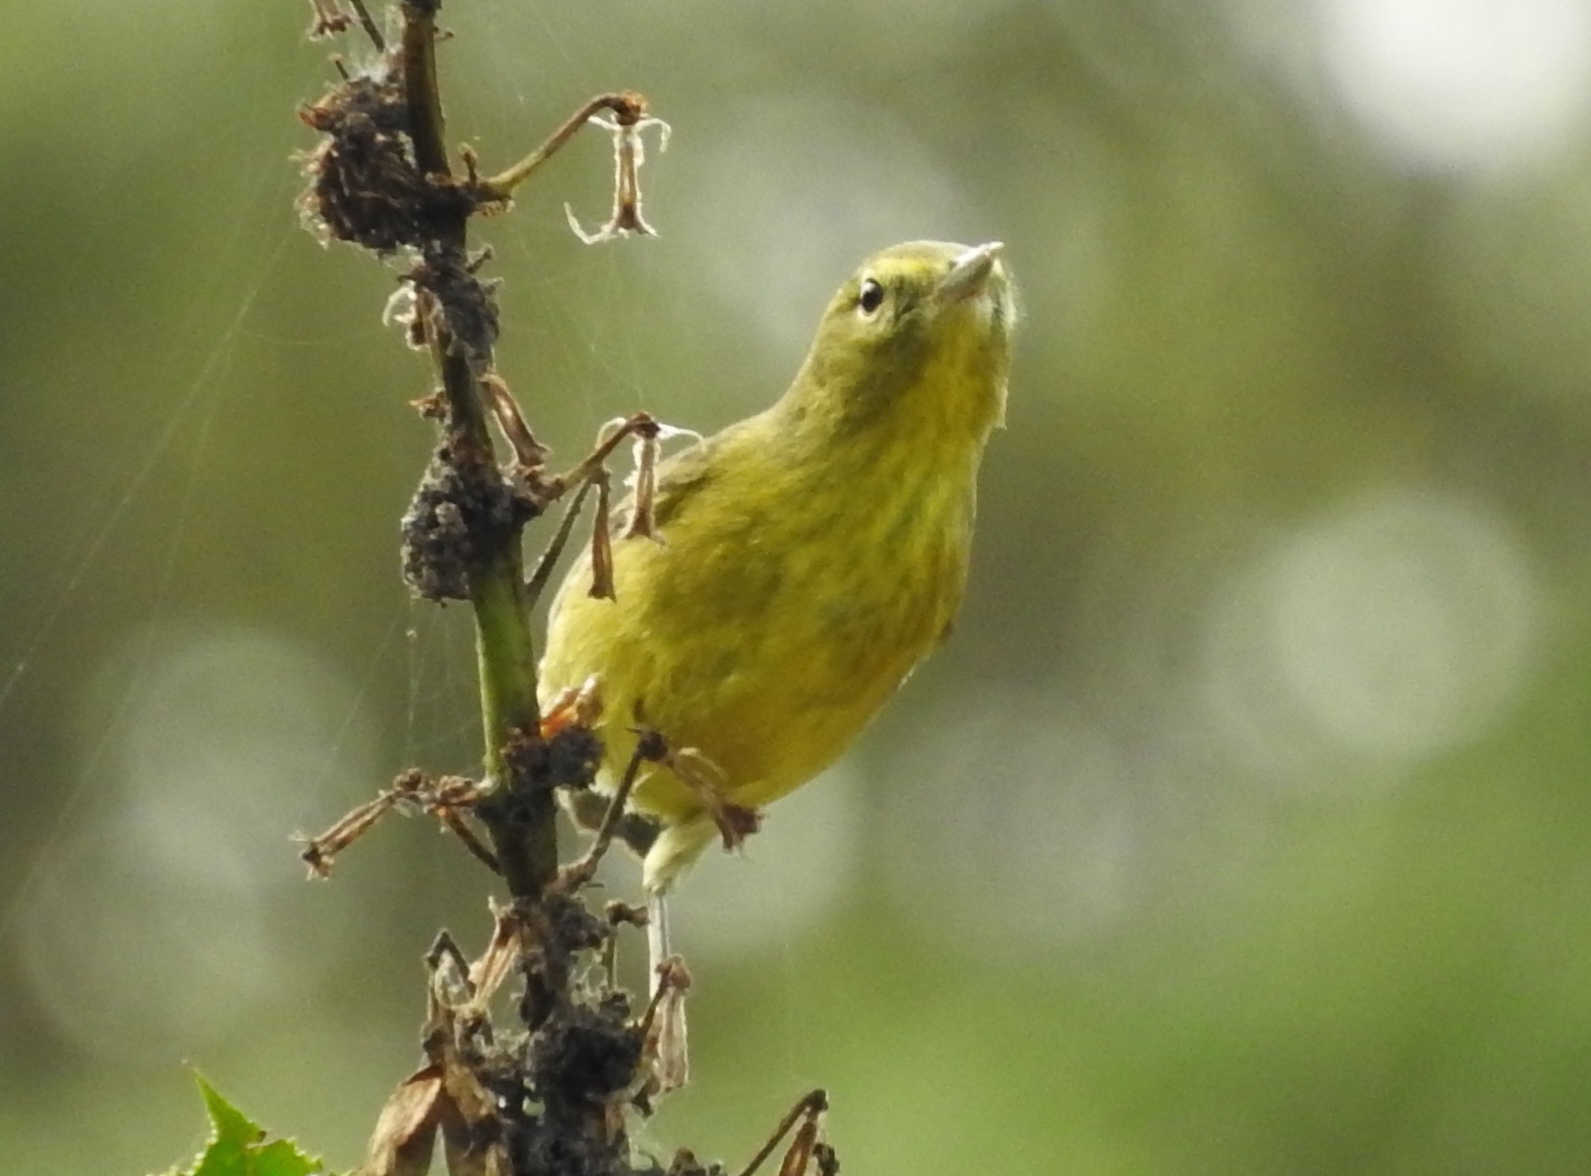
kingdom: Animalia
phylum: Chordata
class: Aves
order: Passeriformes
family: Parulidae
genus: Leiothlypis
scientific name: Leiothlypis celata
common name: Orange-crowned warbler
